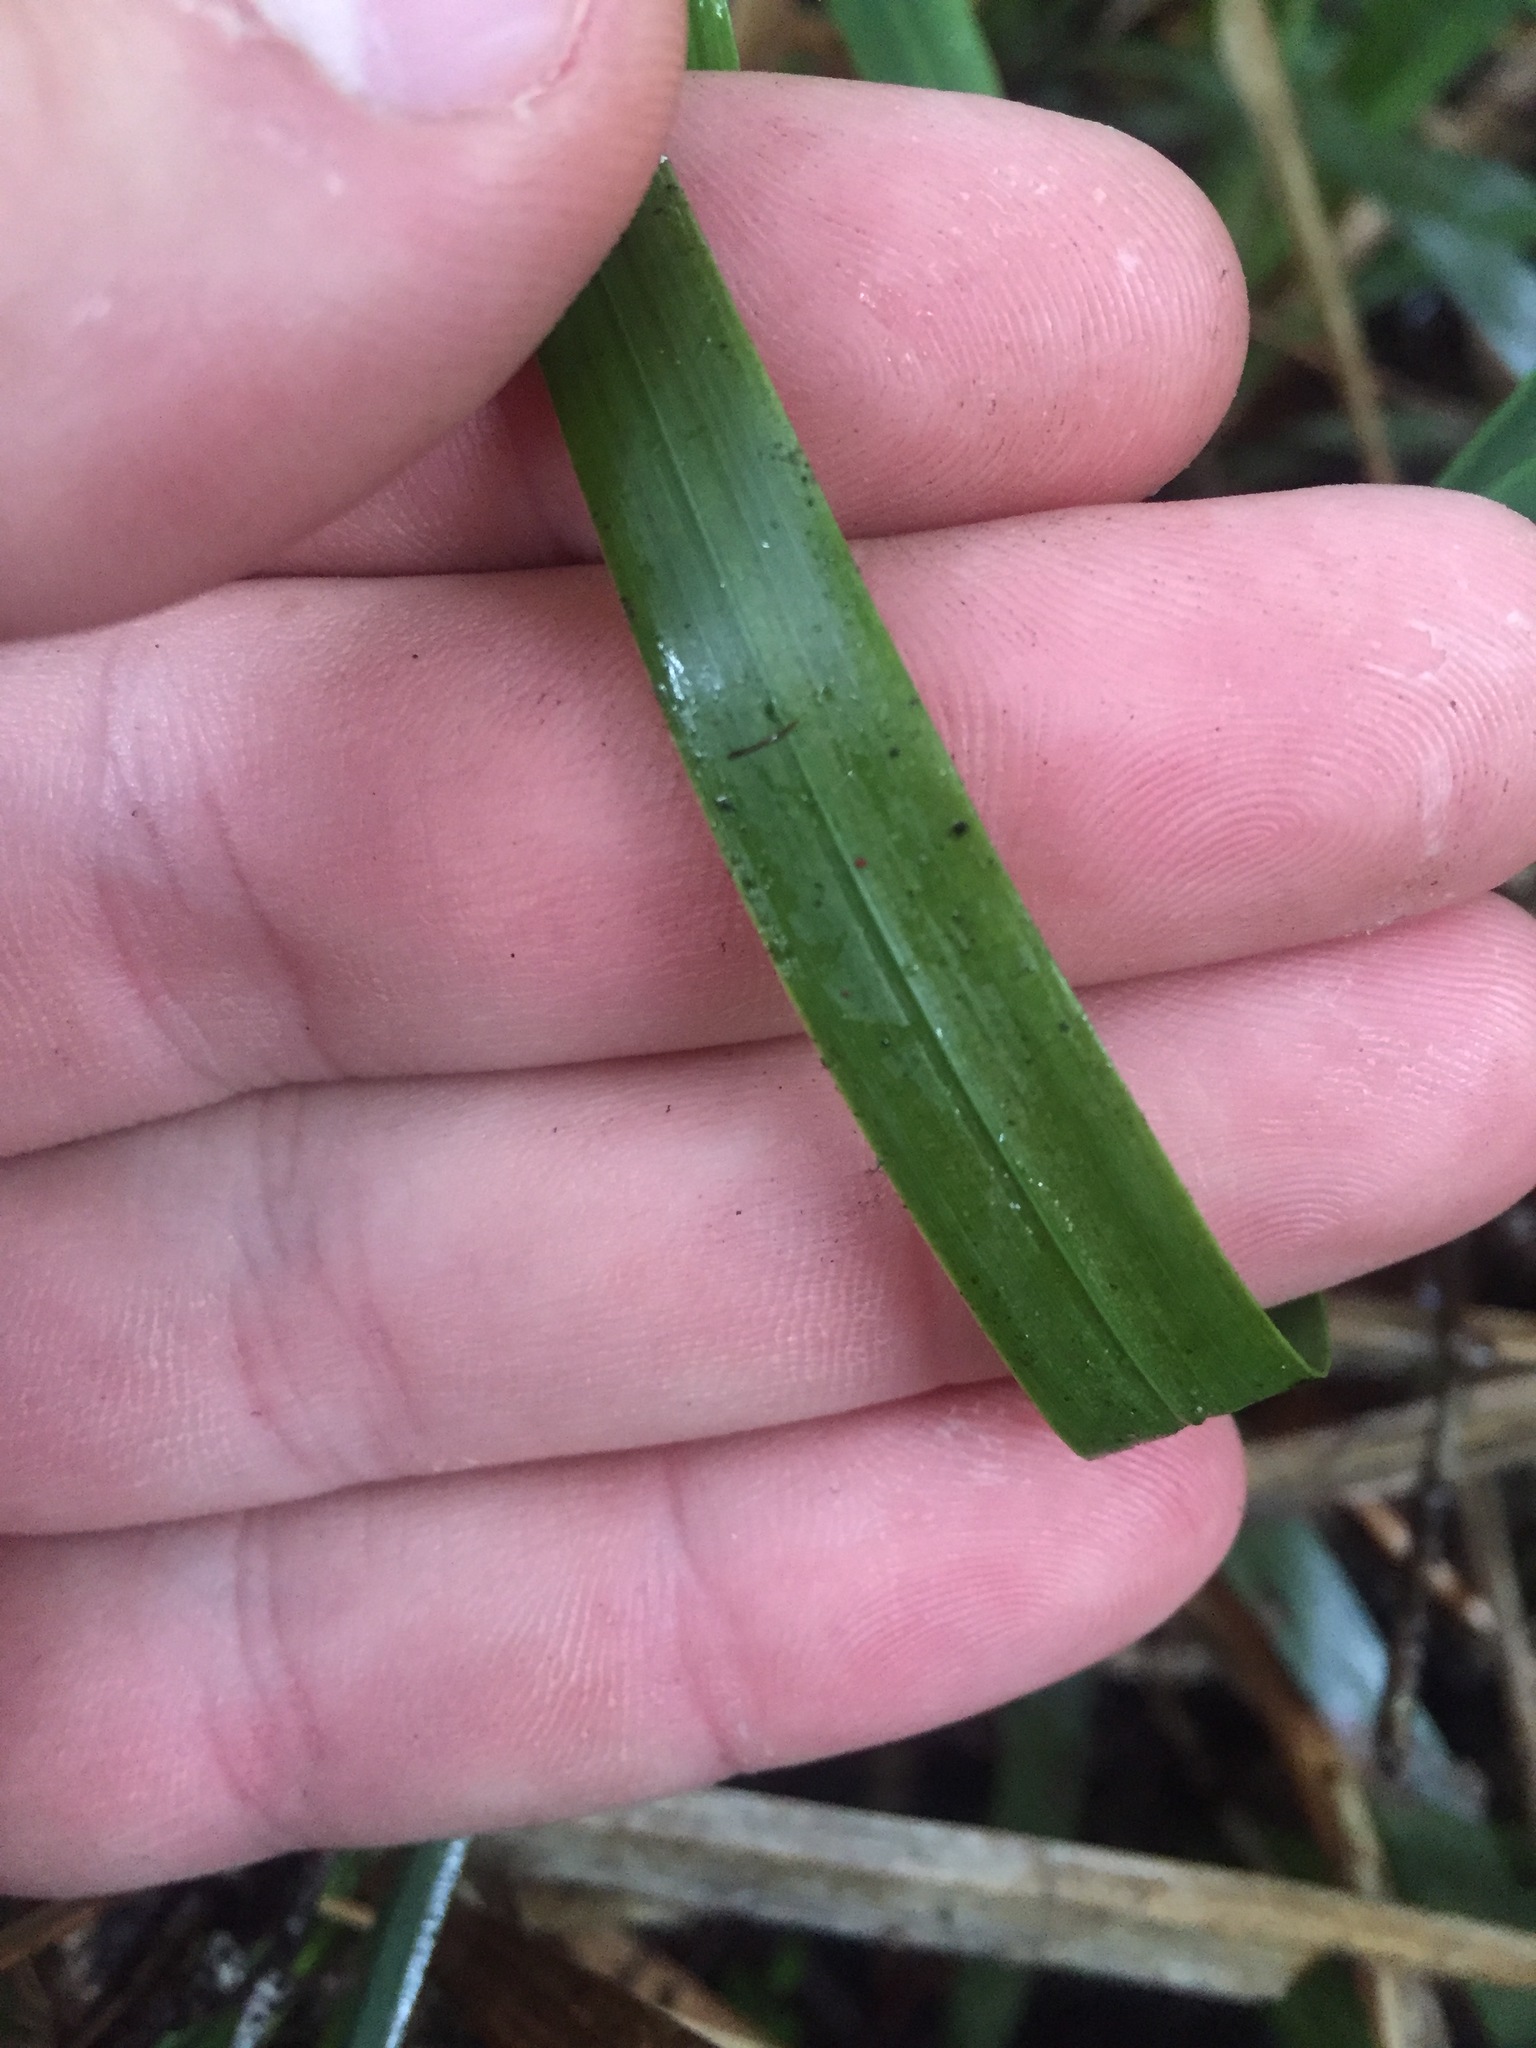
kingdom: Plantae
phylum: Tracheophyta
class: Liliopsida
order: Poales
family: Poaceae
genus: Ehrharta
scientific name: Ehrharta diplax
